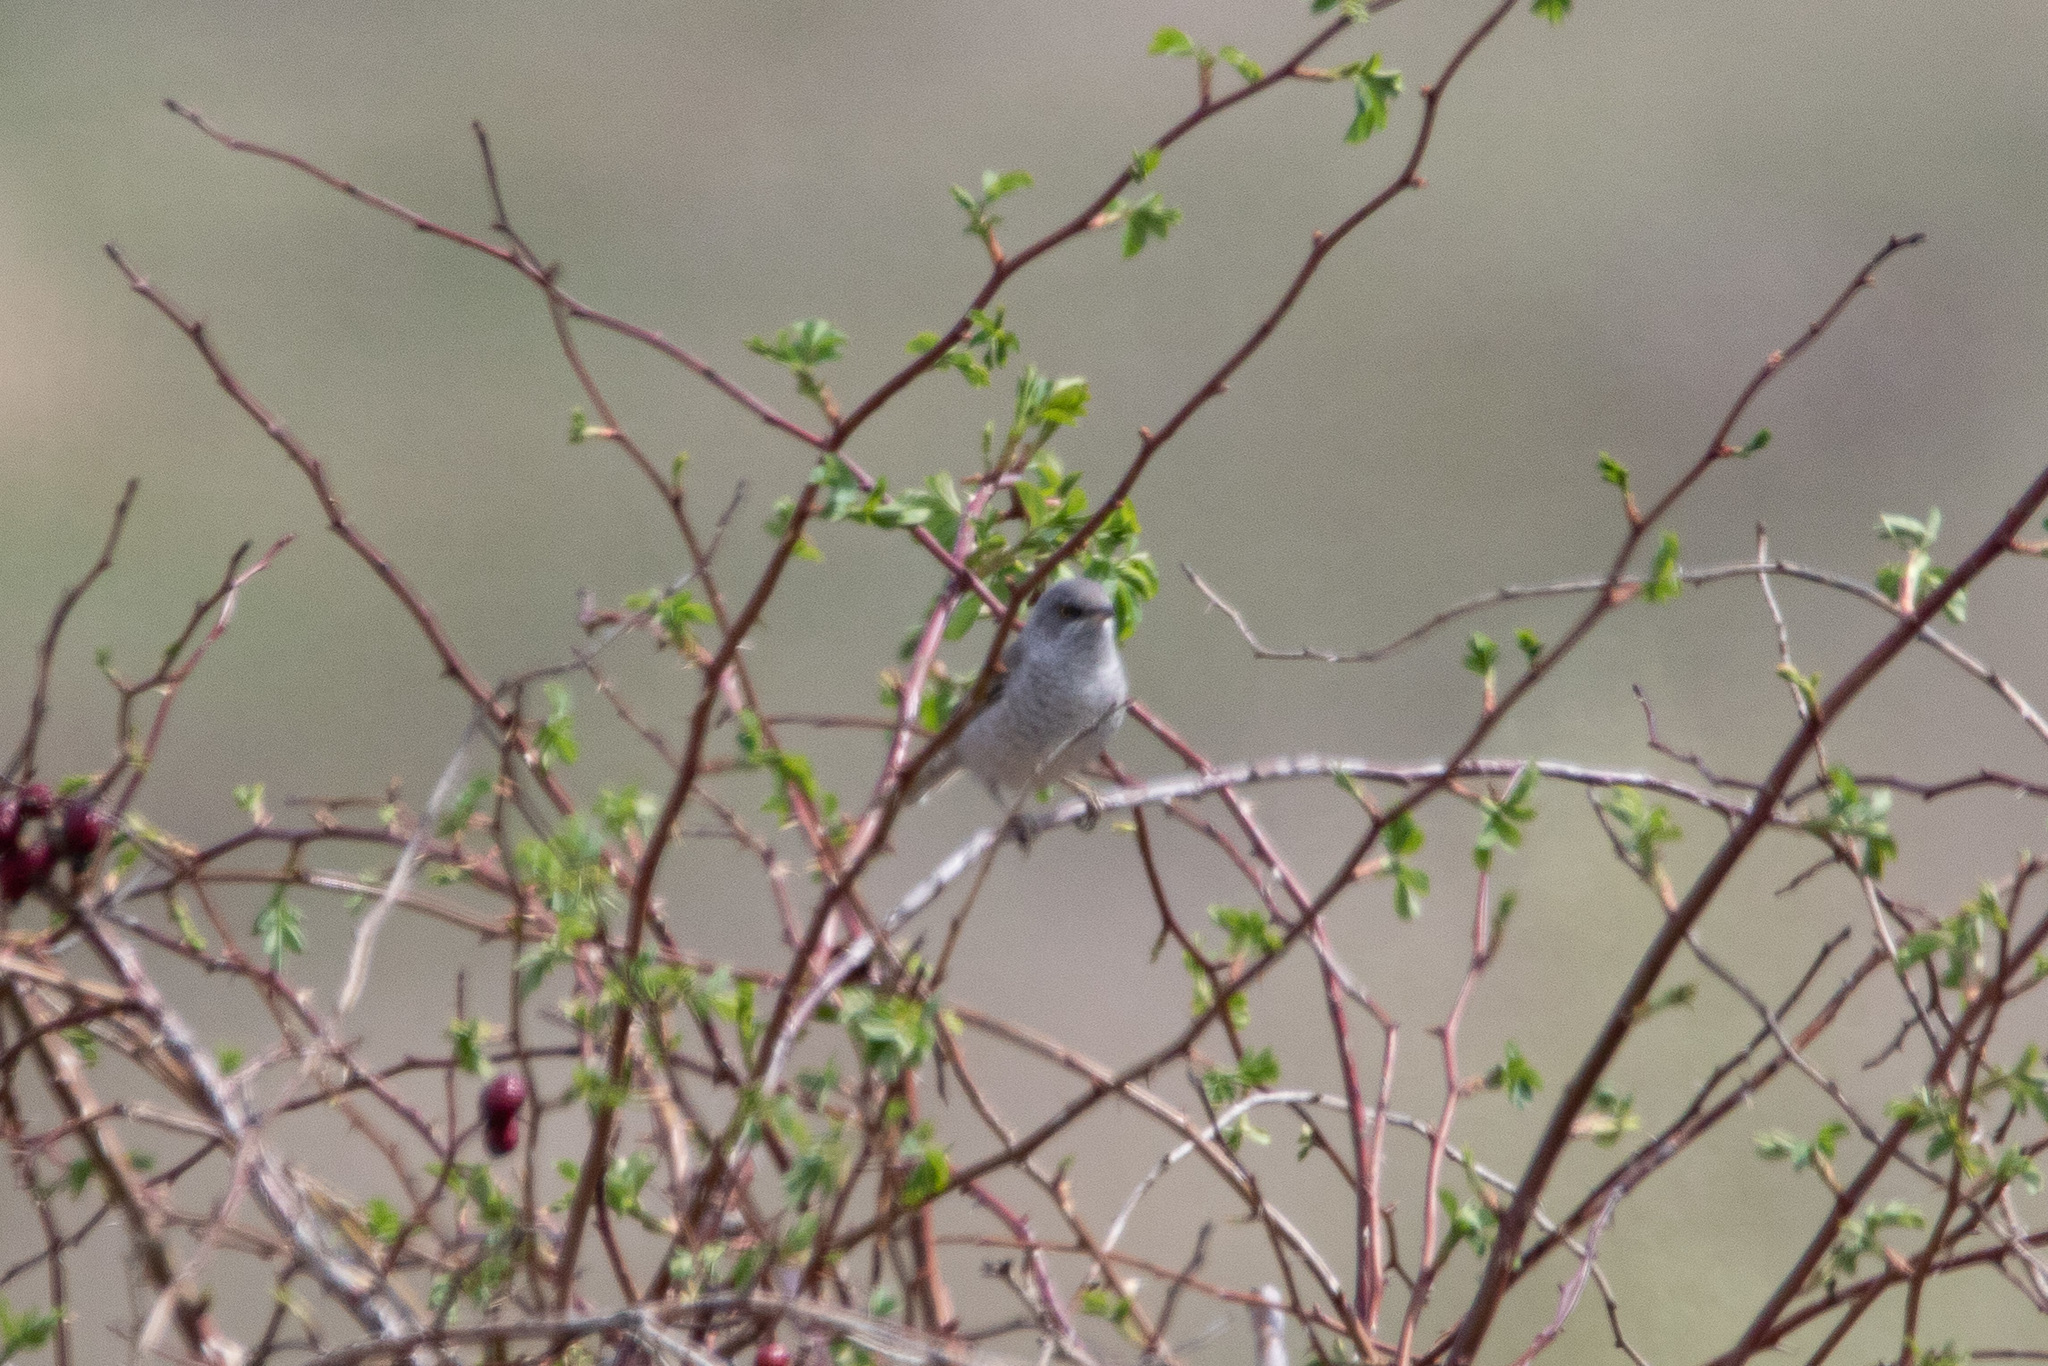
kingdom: Animalia
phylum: Chordata
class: Aves
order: Passeriformes
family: Sylviidae
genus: Sylvia
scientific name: Sylvia nisoria
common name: Barred warbler
